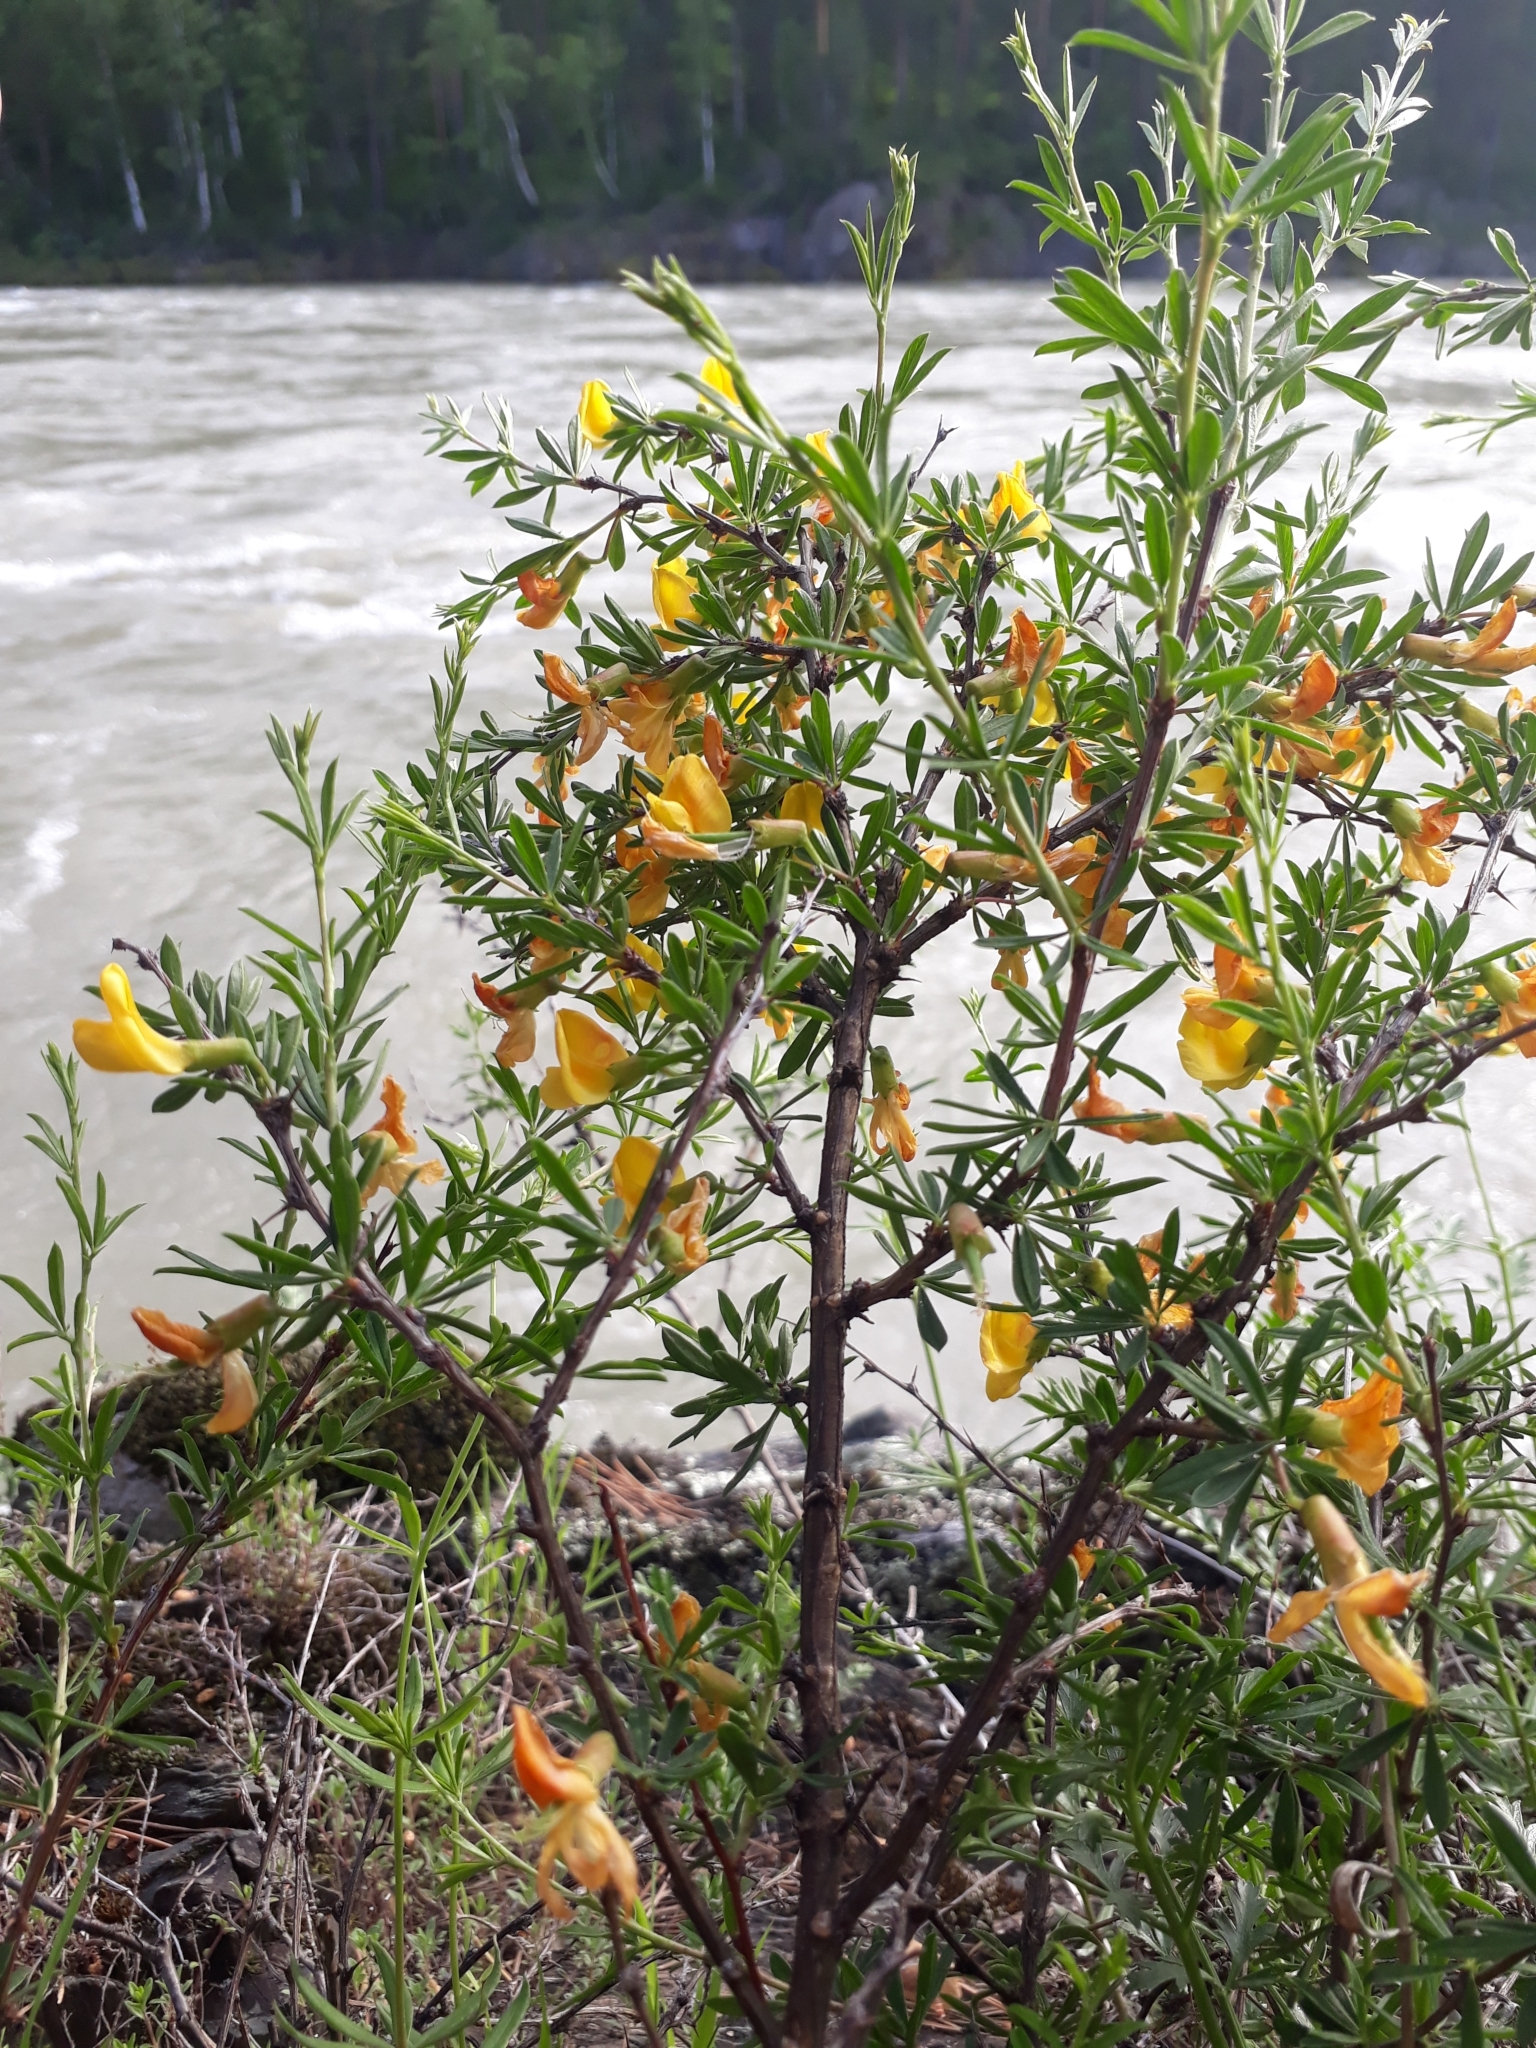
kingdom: Plantae
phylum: Tracheophyta
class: Magnoliopsida
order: Fabales
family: Fabaceae
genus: Caragana
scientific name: Caragana frutex
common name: Russian peashrub
